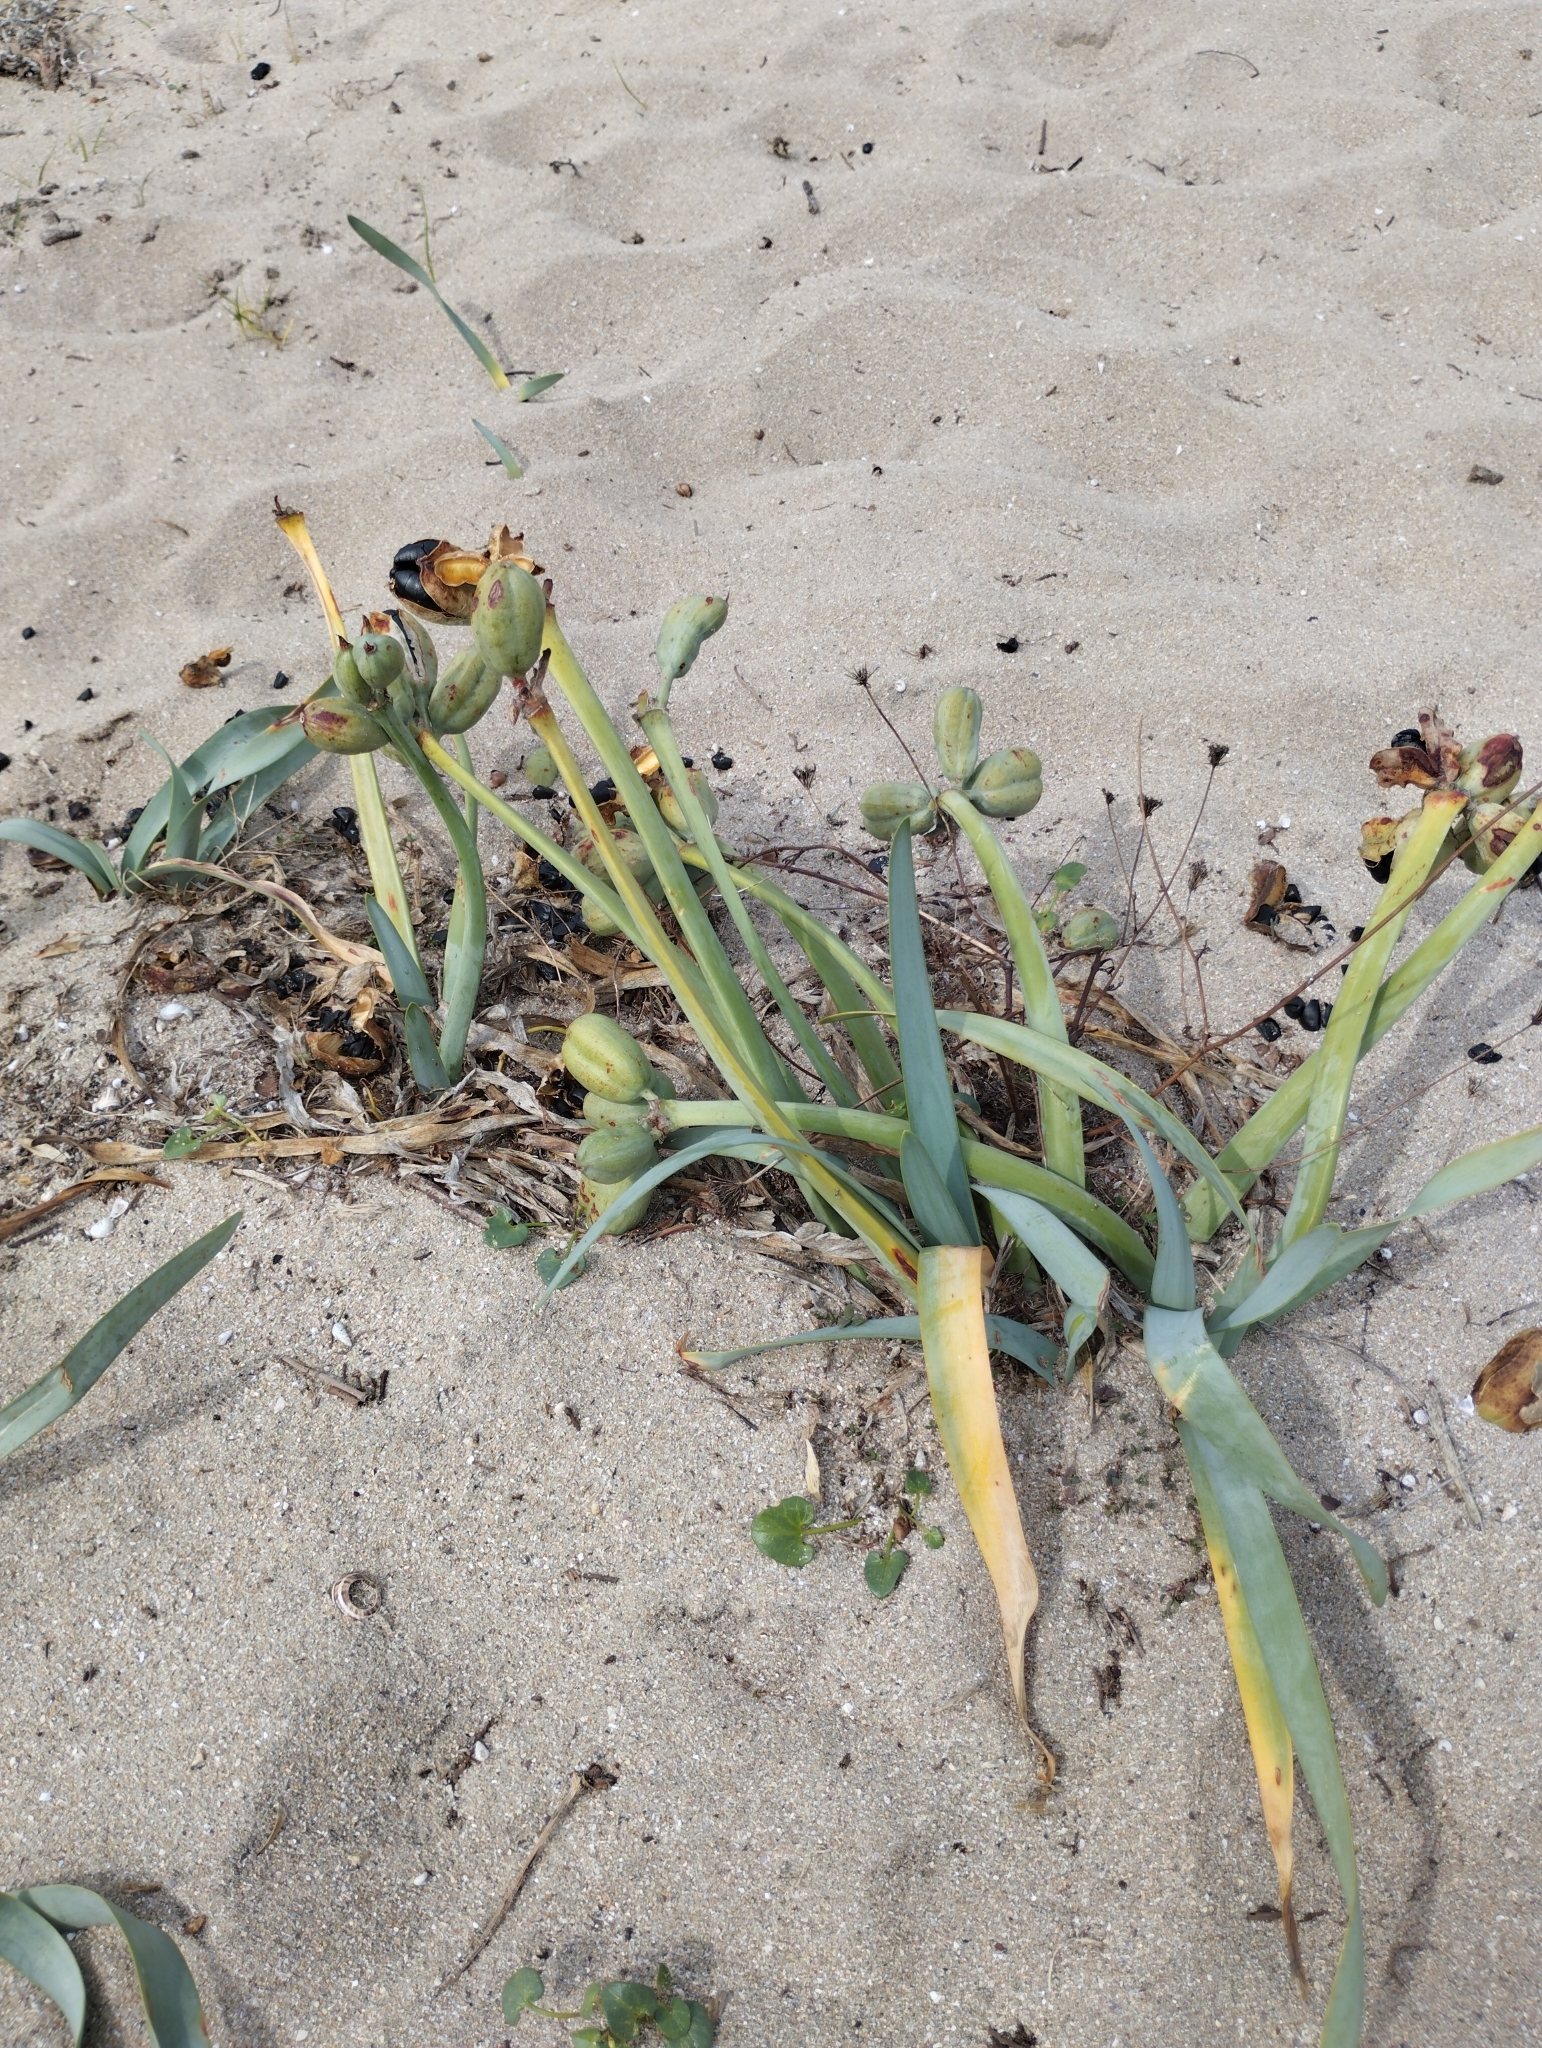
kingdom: Plantae
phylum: Tracheophyta
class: Liliopsida
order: Asparagales
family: Amaryllidaceae
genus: Pancratium
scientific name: Pancratium maritimum
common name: Sea-daffodil
